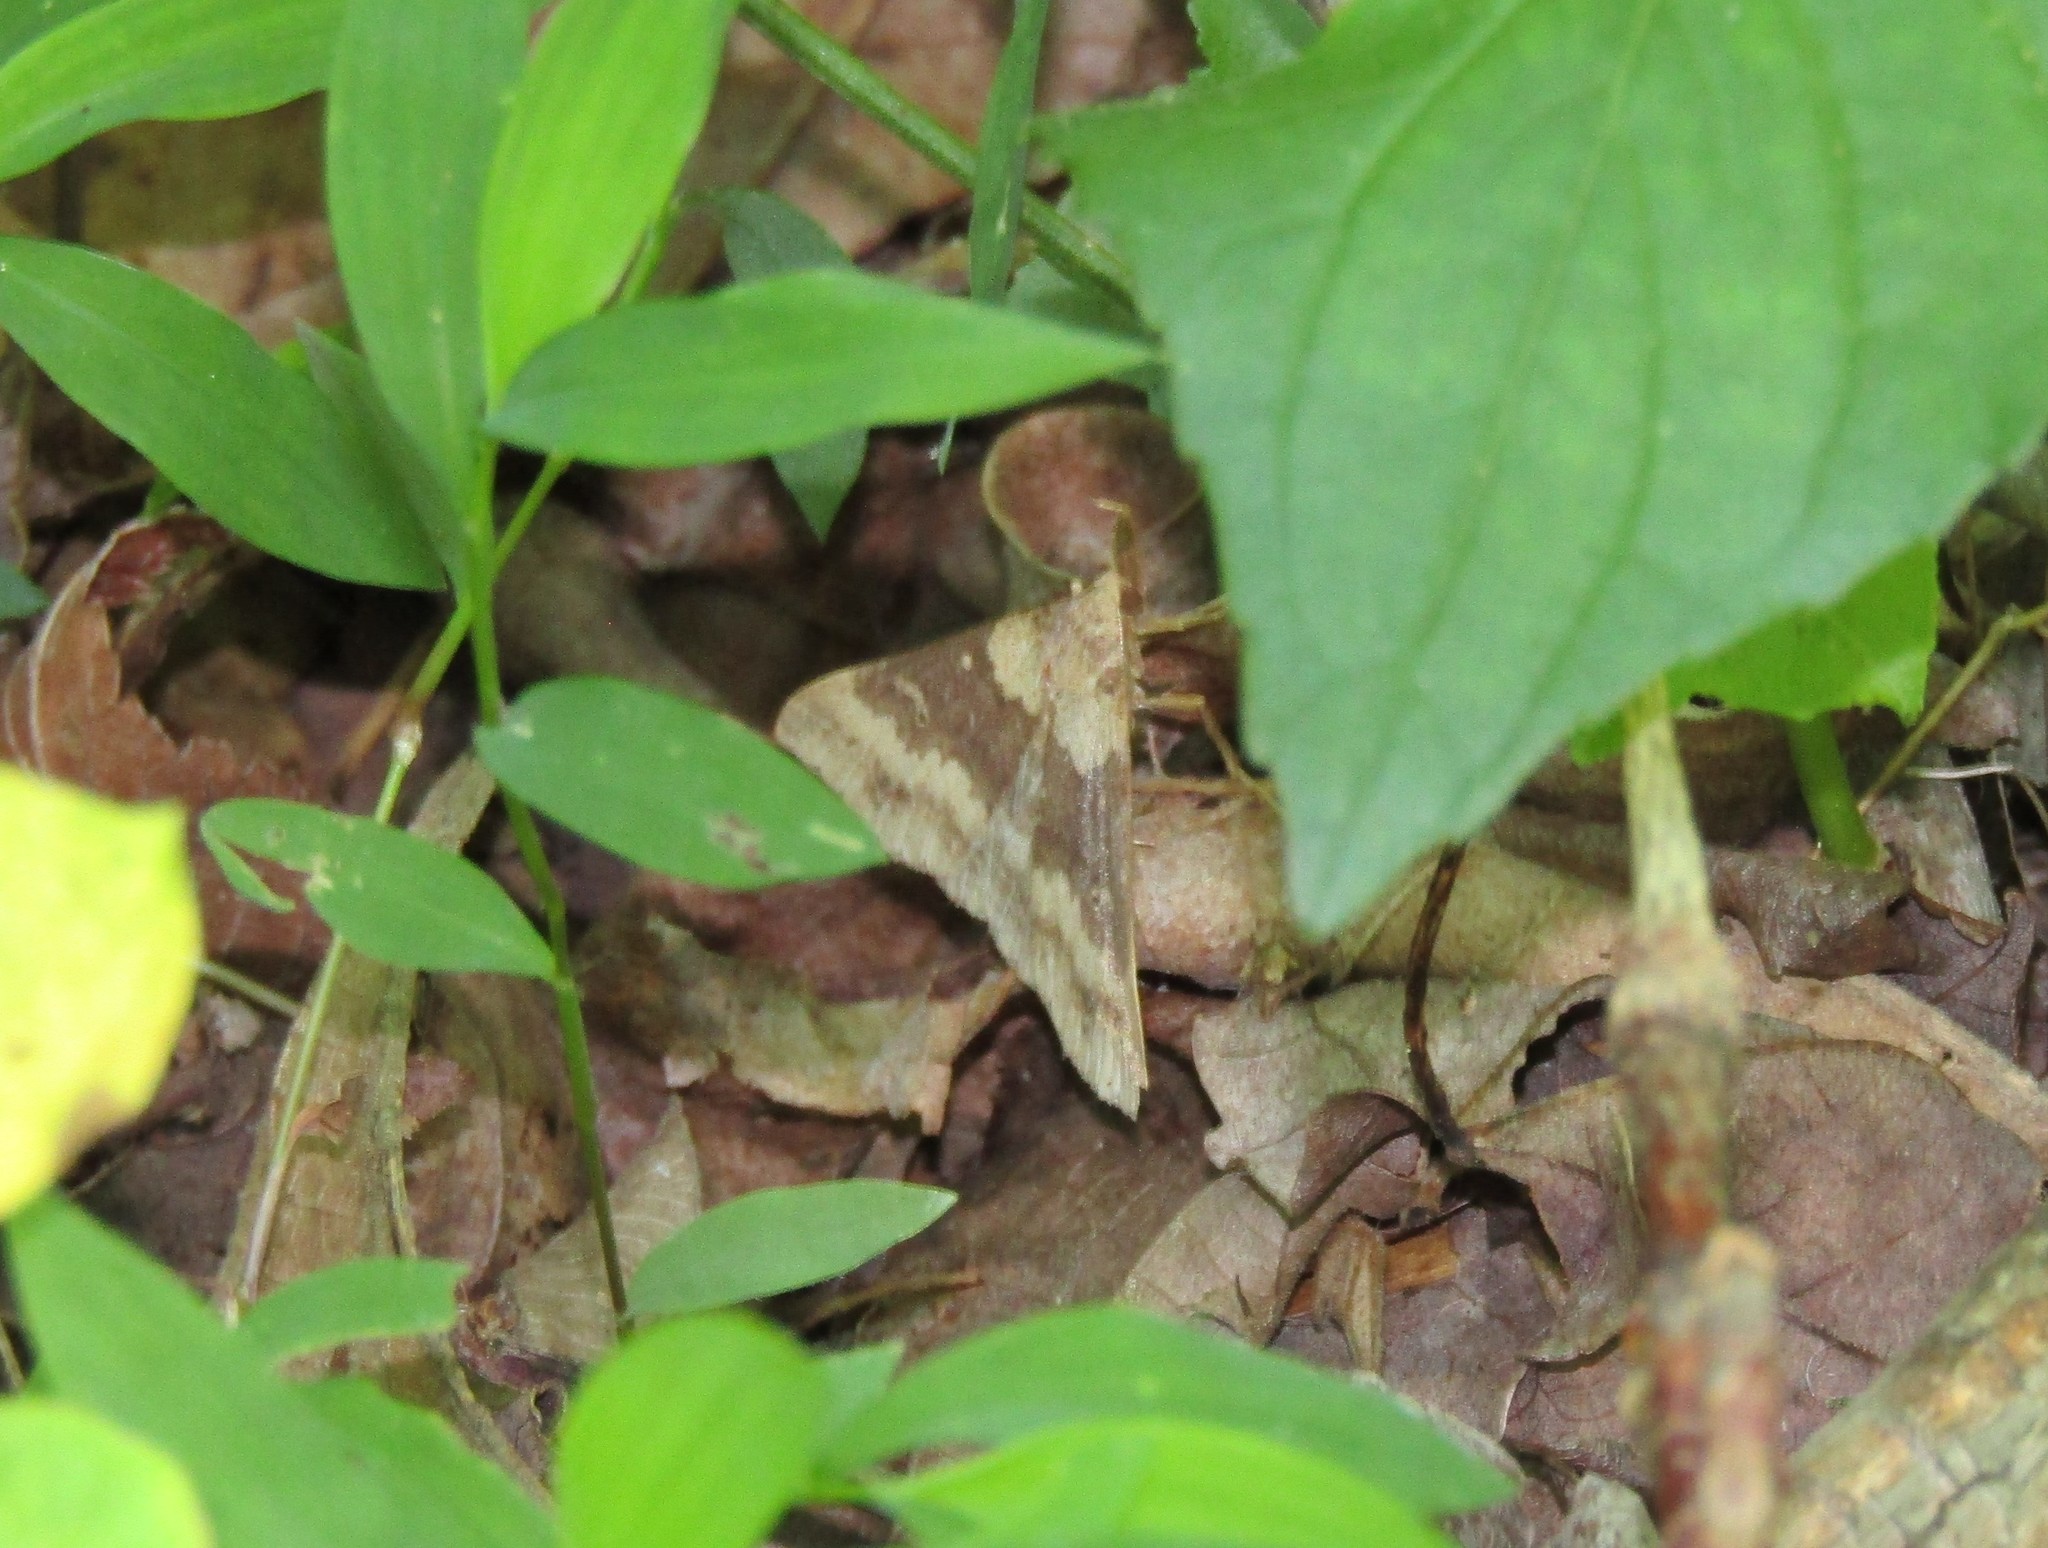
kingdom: Animalia
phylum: Arthropoda
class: Insecta
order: Lepidoptera
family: Erebidae
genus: Renia
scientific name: Renia discoloralis
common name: Discolored renia moth
